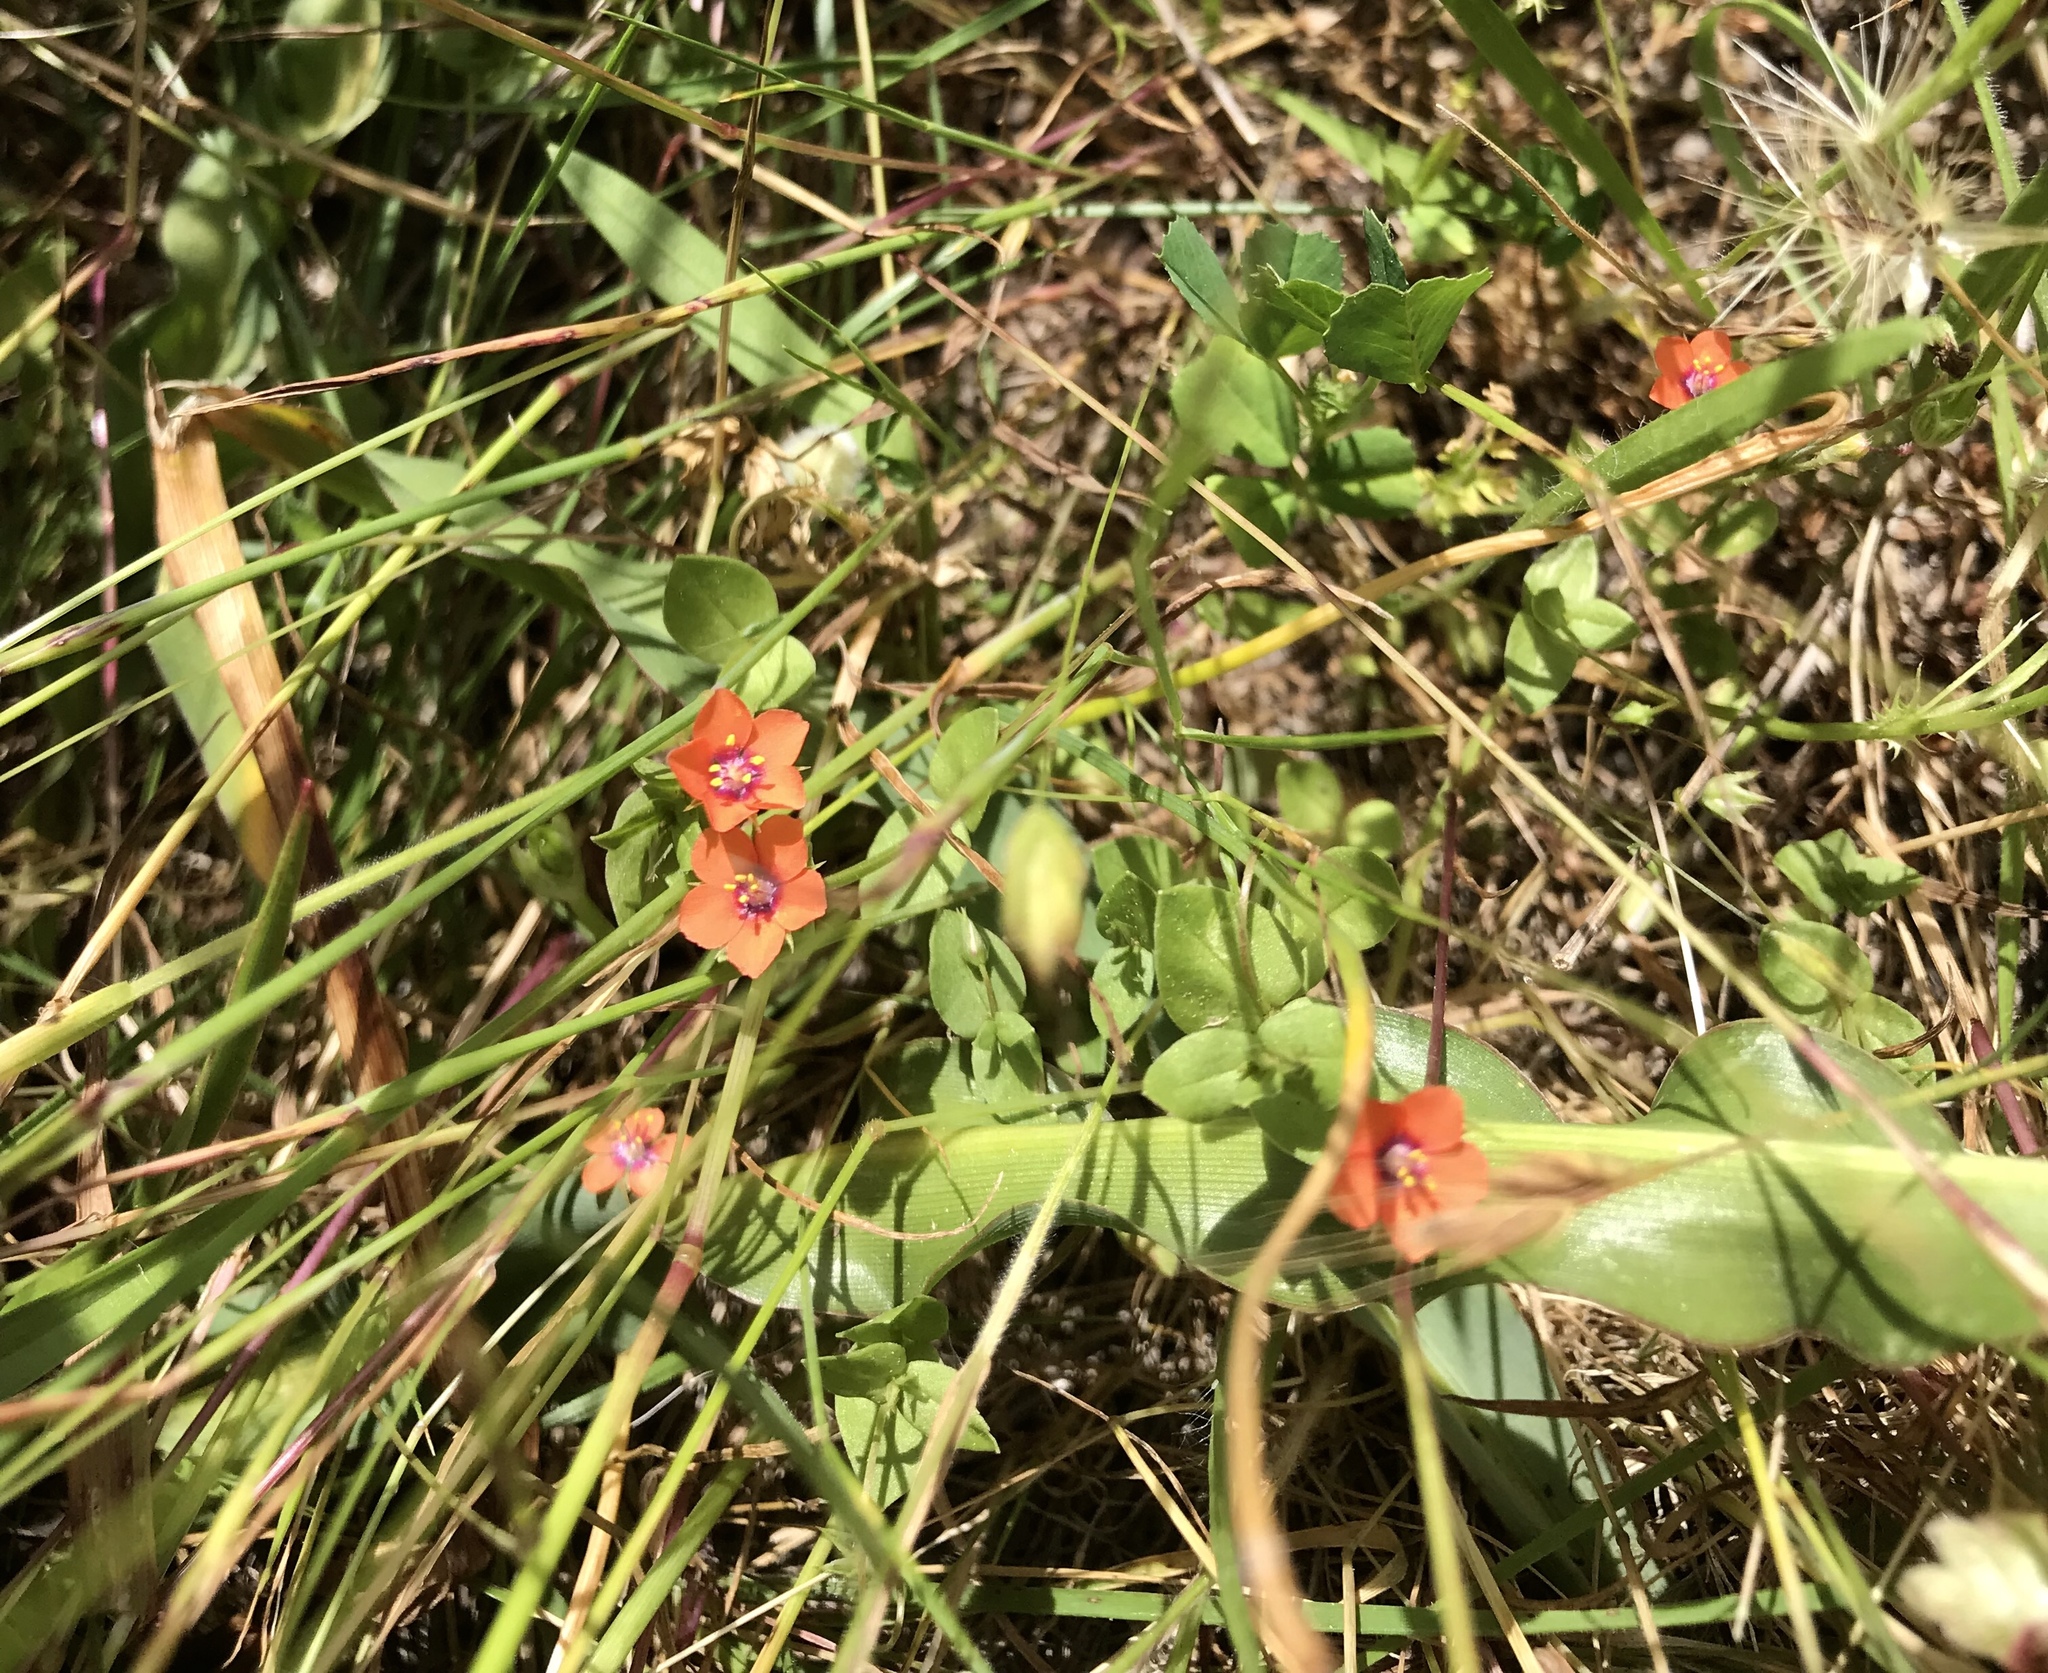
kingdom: Plantae
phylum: Tracheophyta
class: Magnoliopsida
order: Ericales
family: Primulaceae
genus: Lysimachia
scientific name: Lysimachia arvensis
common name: Scarlet pimpernel
